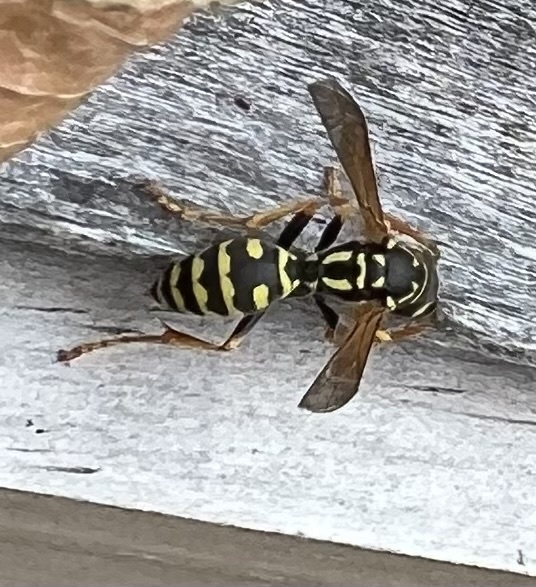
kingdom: Animalia
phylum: Arthropoda
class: Insecta
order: Hymenoptera
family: Eumenidae
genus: Polistes
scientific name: Polistes dominula
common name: Paper wasp
